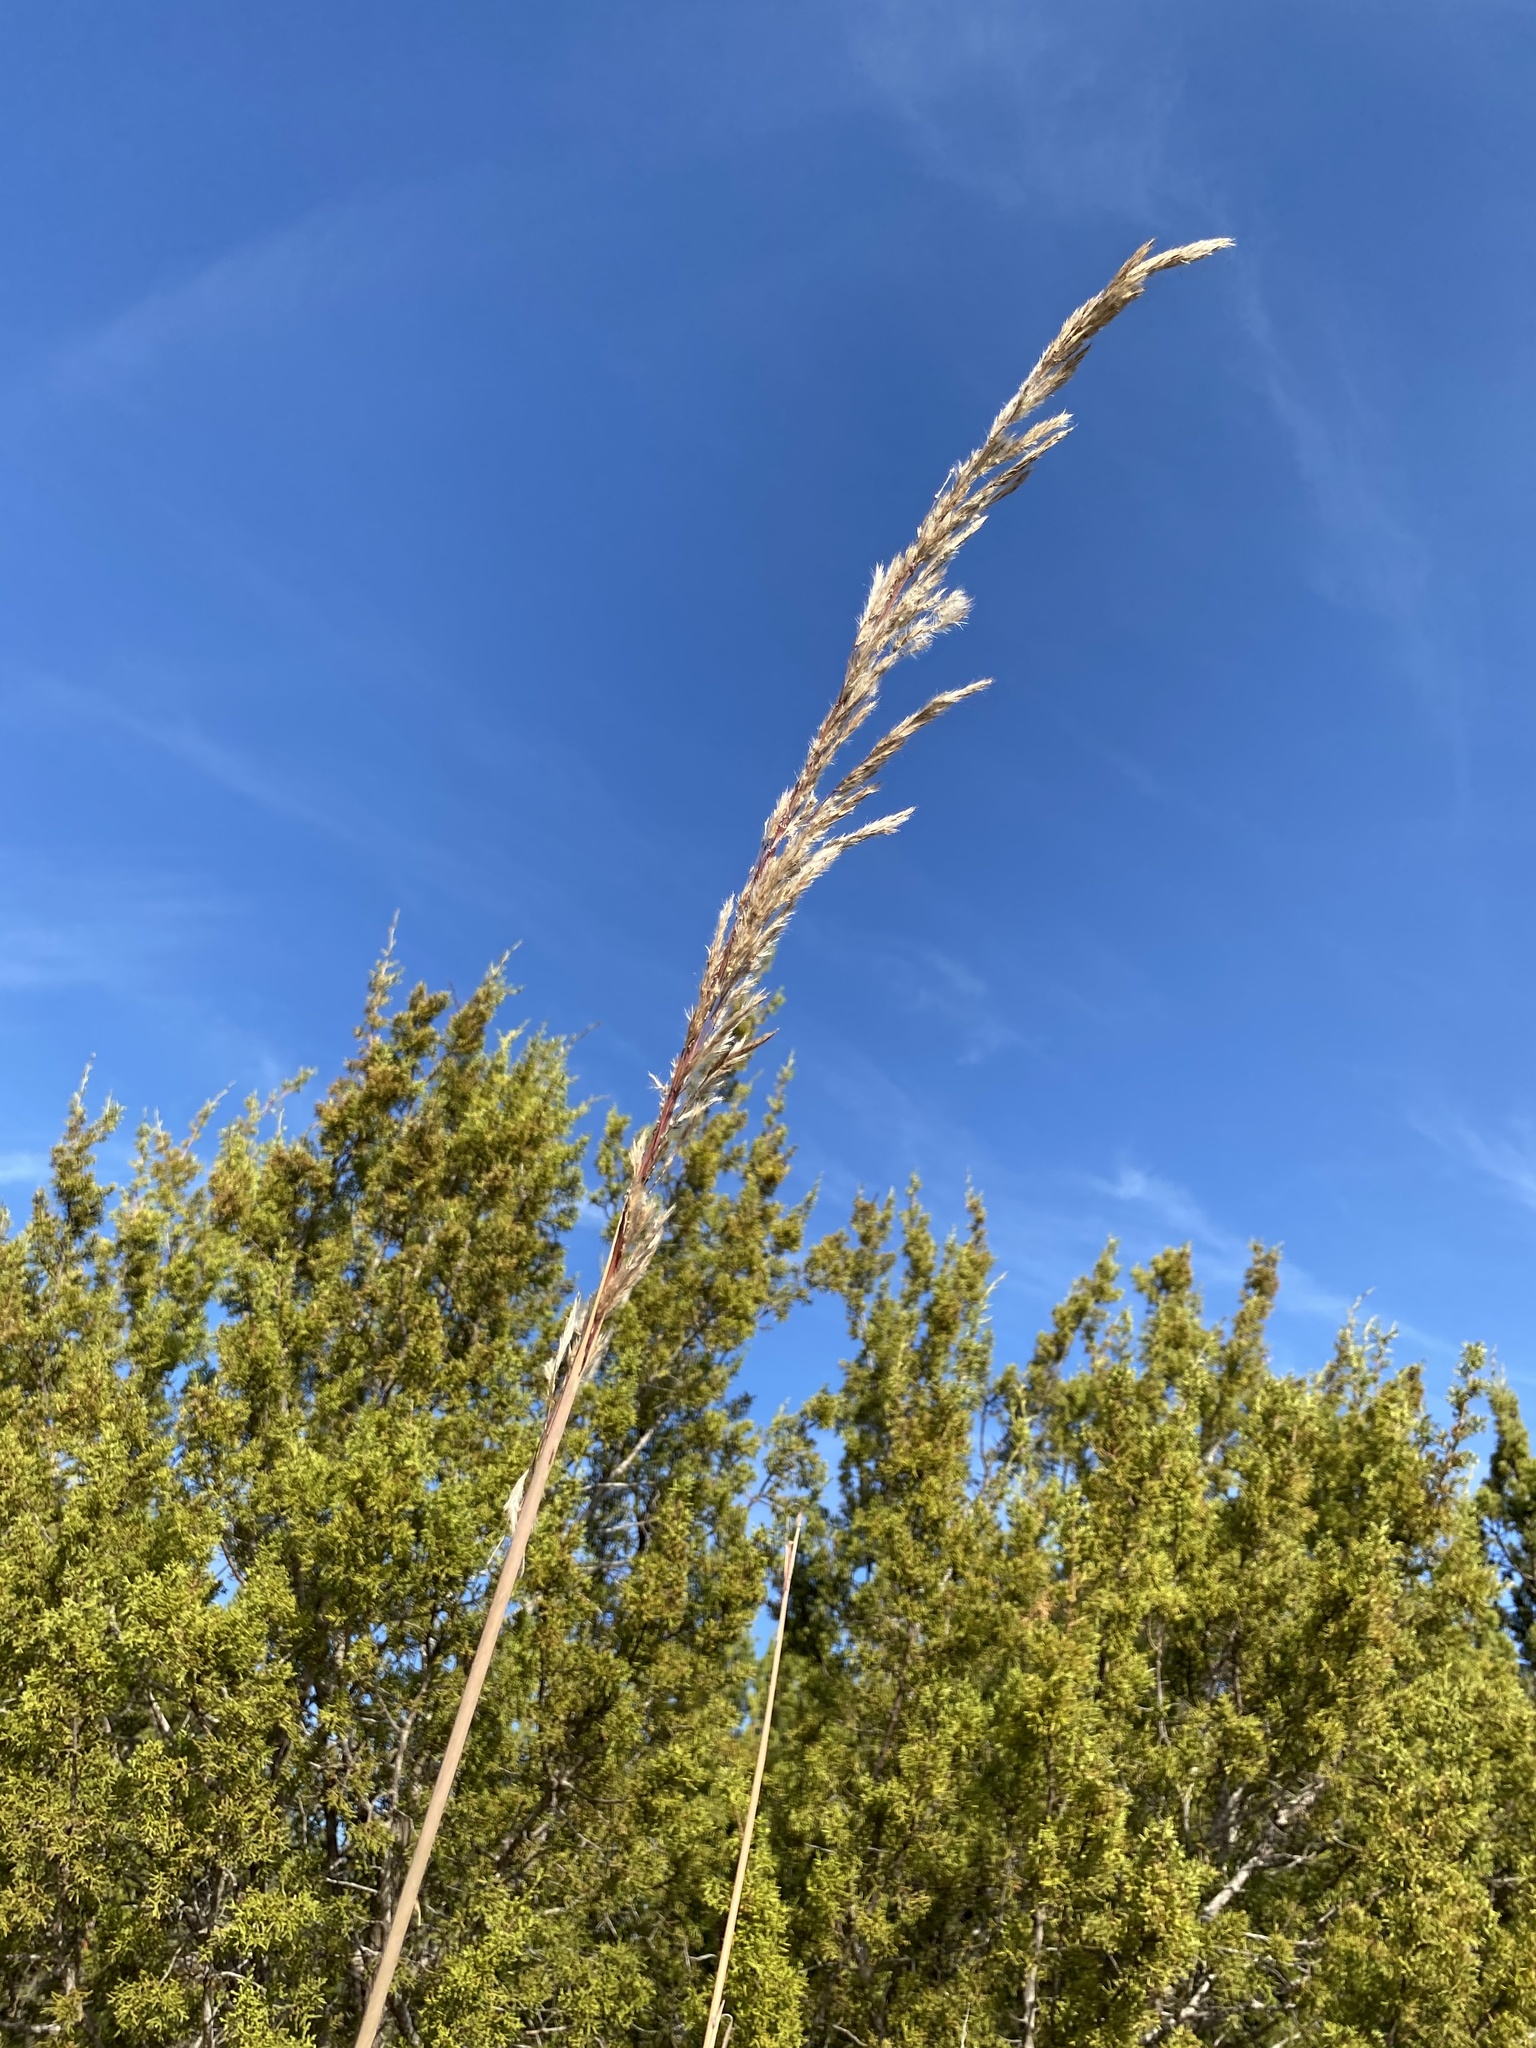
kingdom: Plantae
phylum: Tracheophyta
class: Liliopsida
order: Poales
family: Poaceae
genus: Tripidium
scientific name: Tripidium ravennae
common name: Ravenna grass
